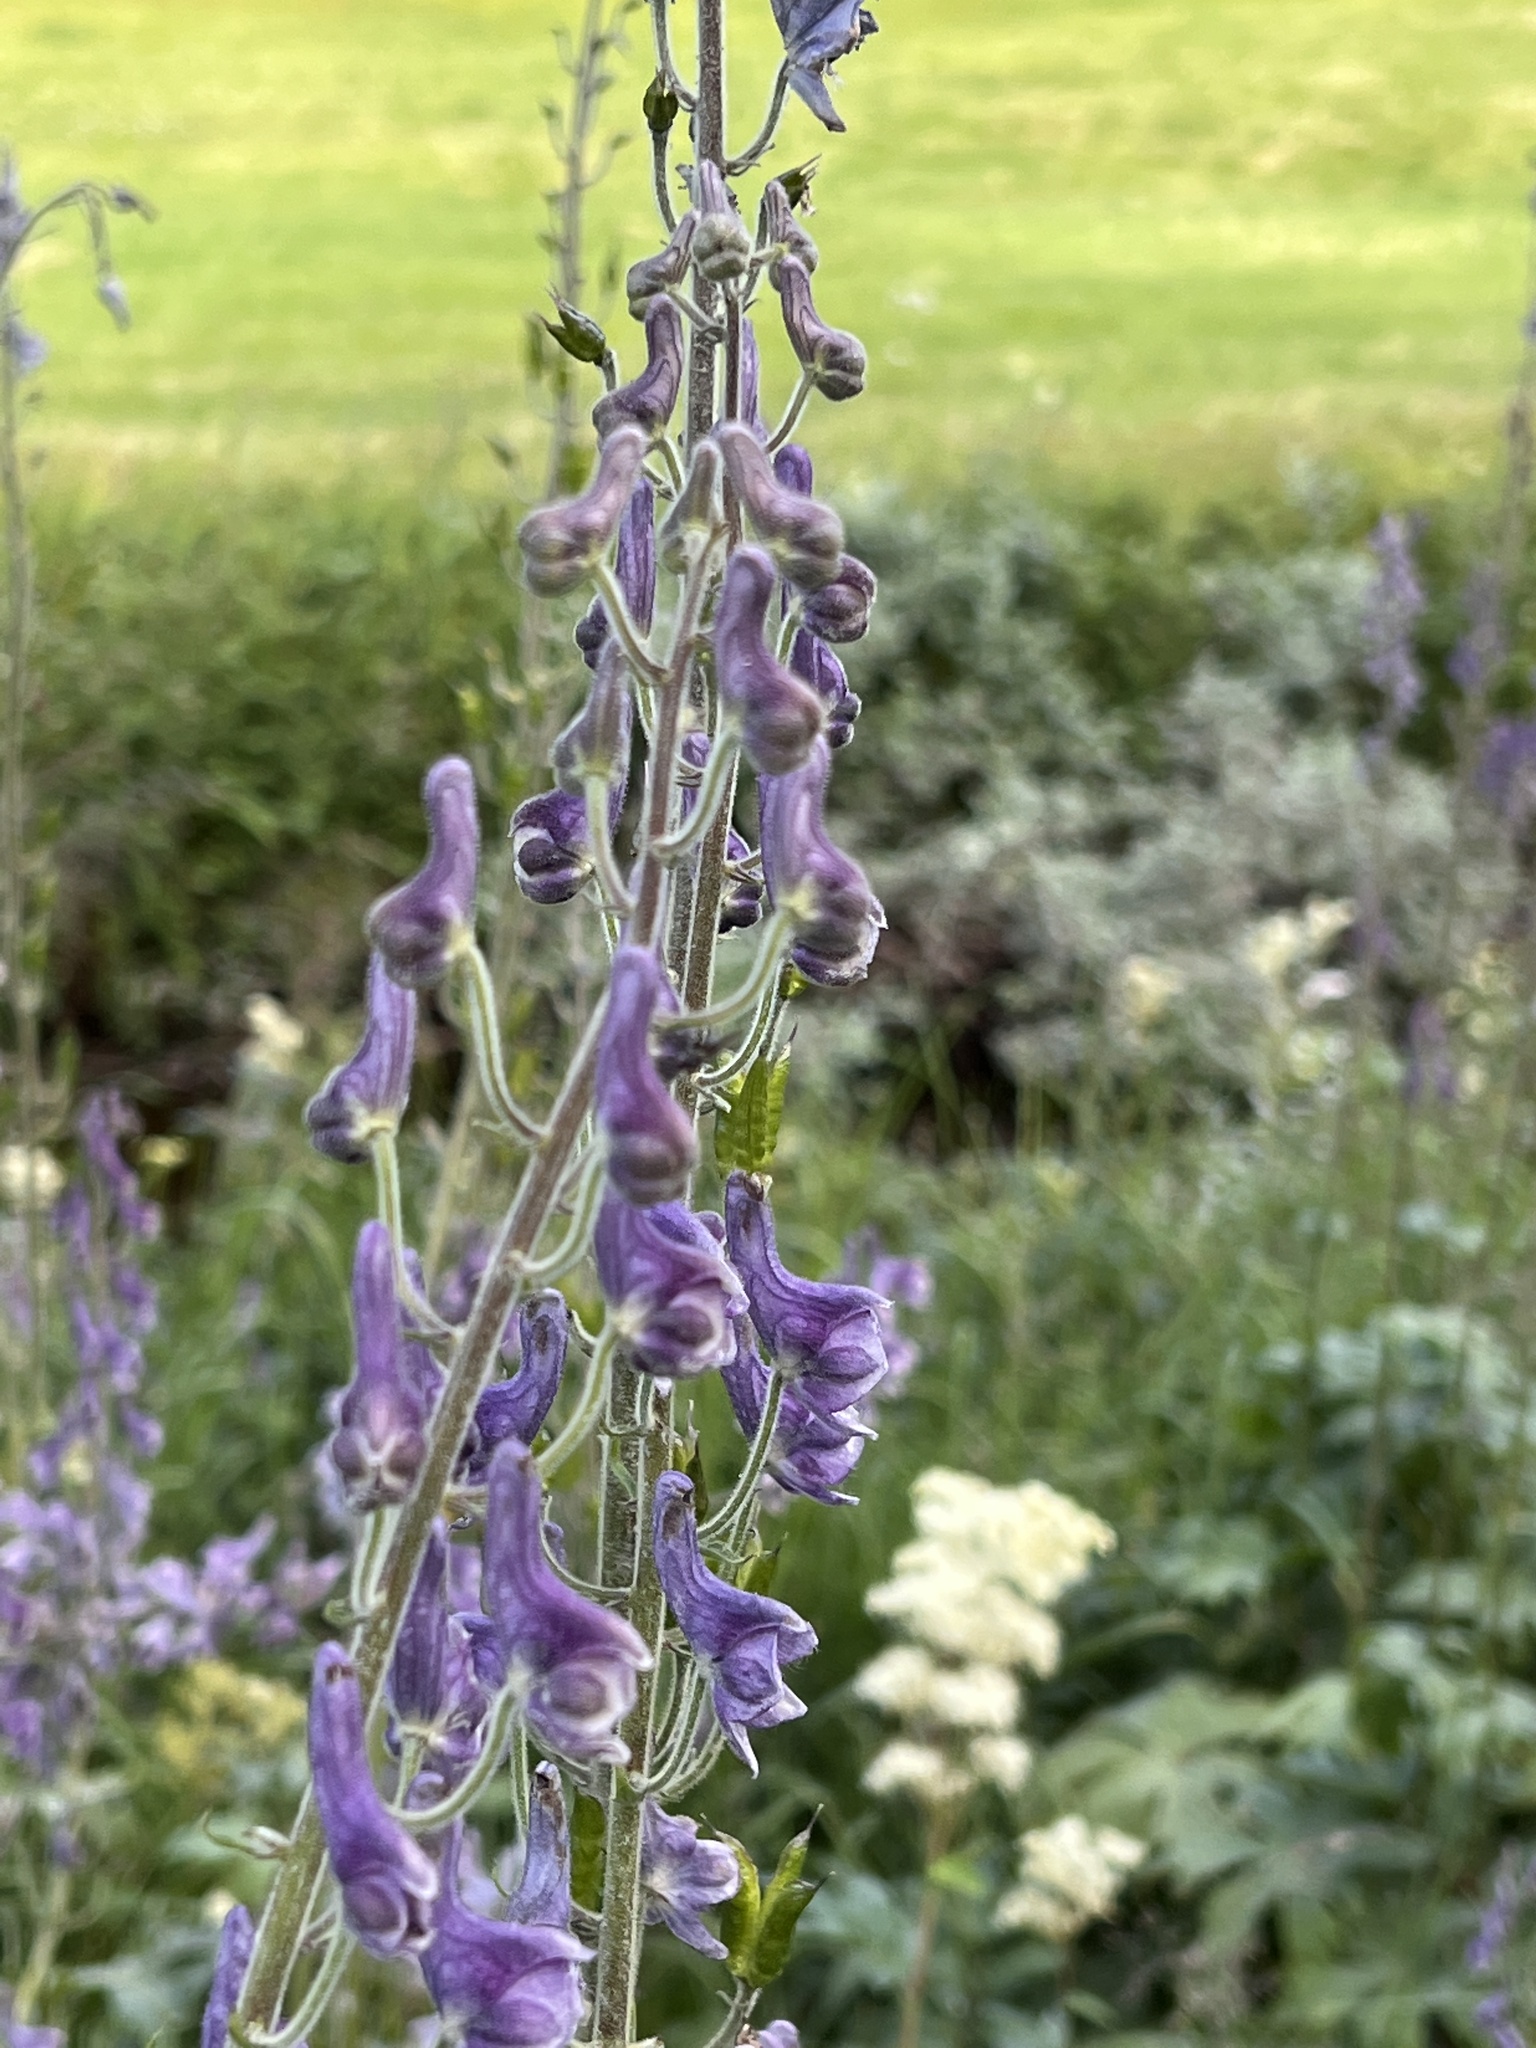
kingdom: Plantae
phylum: Tracheophyta
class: Magnoliopsida
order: Ranunculales
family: Ranunculaceae
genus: Aconitum
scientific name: Aconitum septentrionale
